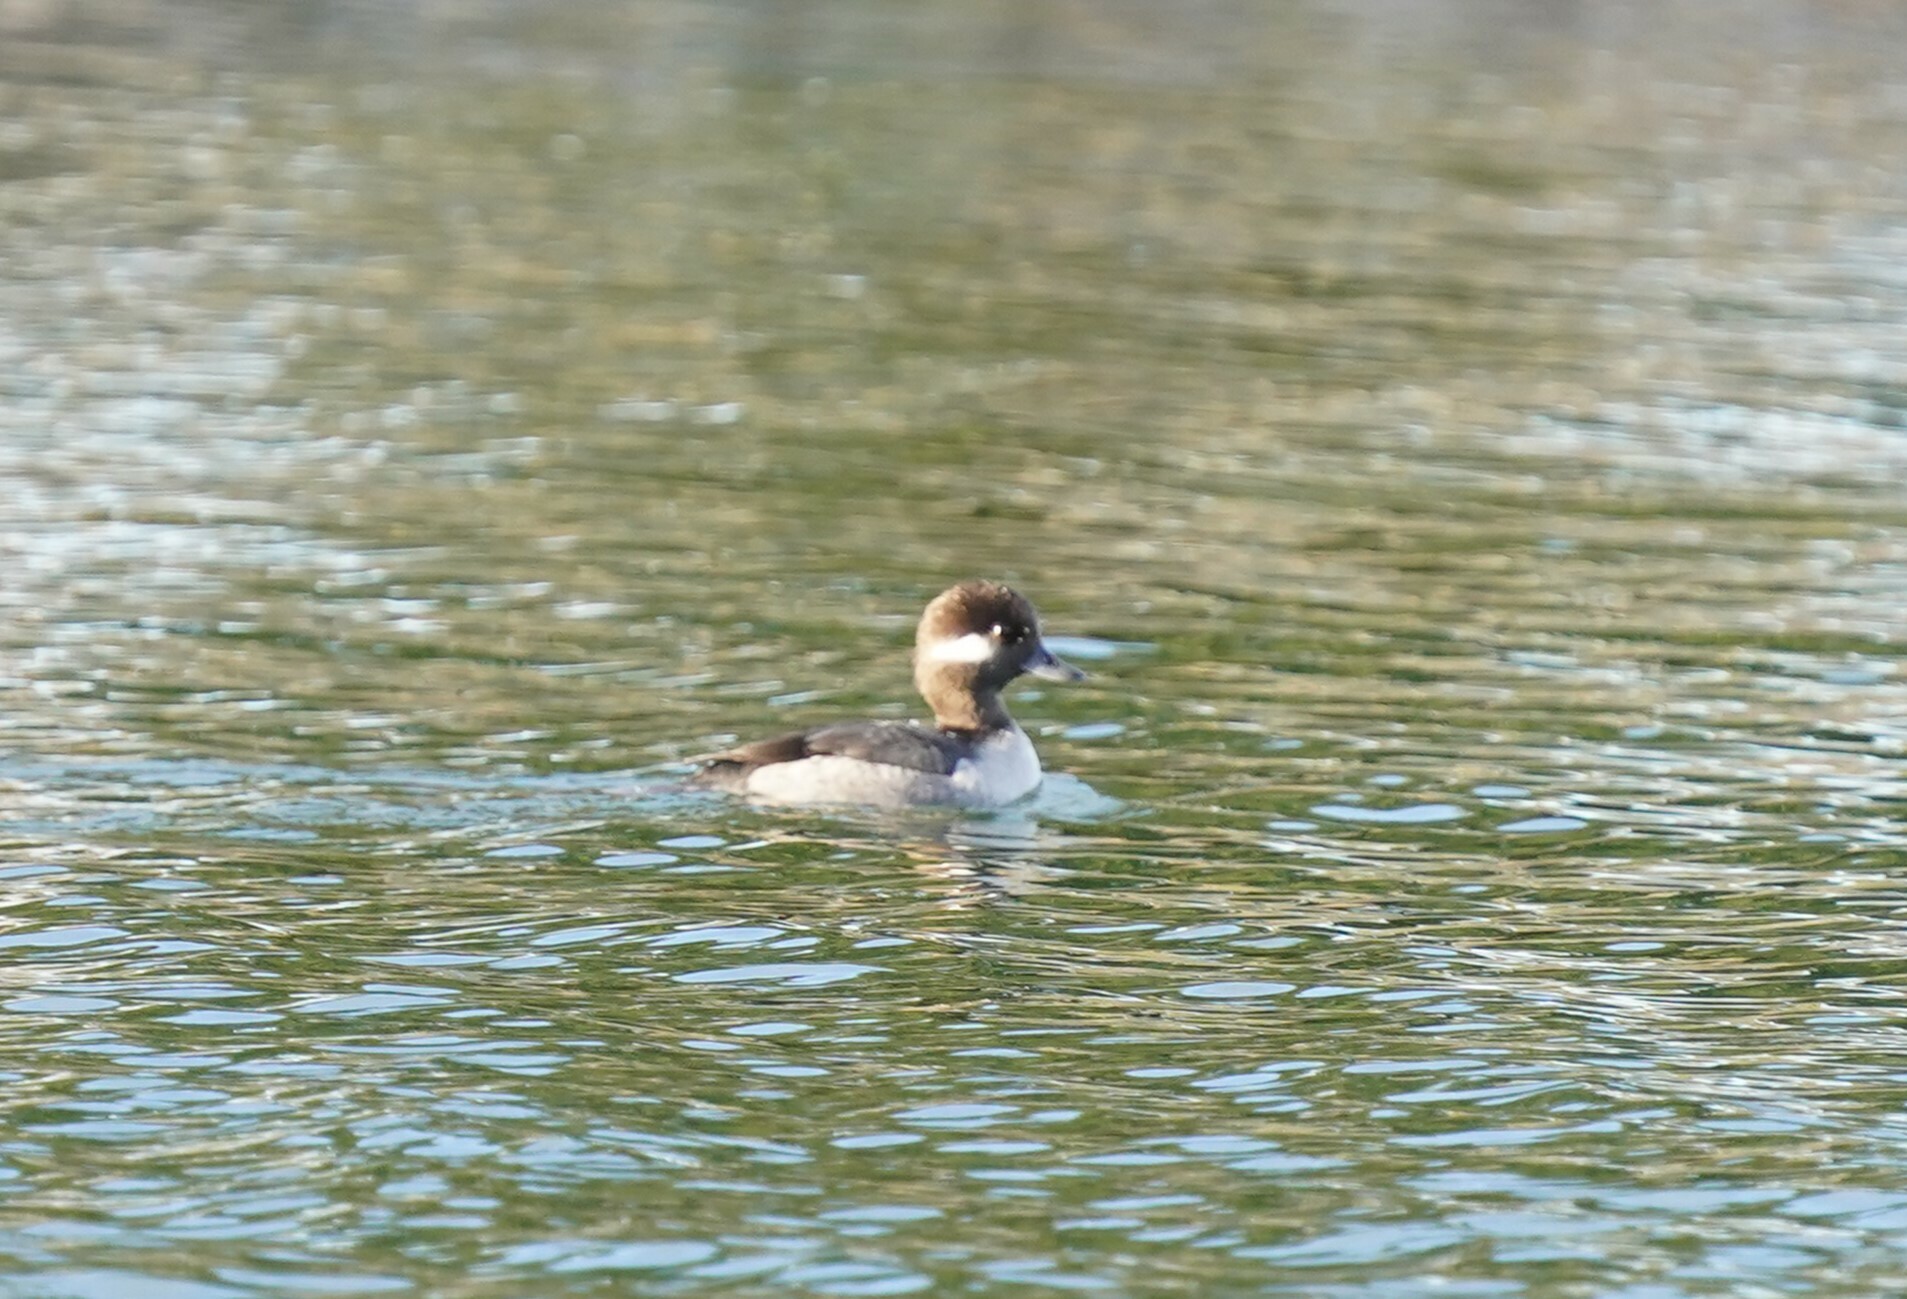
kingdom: Animalia
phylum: Chordata
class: Aves
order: Anseriformes
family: Anatidae
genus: Bucephala
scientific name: Bucephala albeola
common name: Bufflehead
